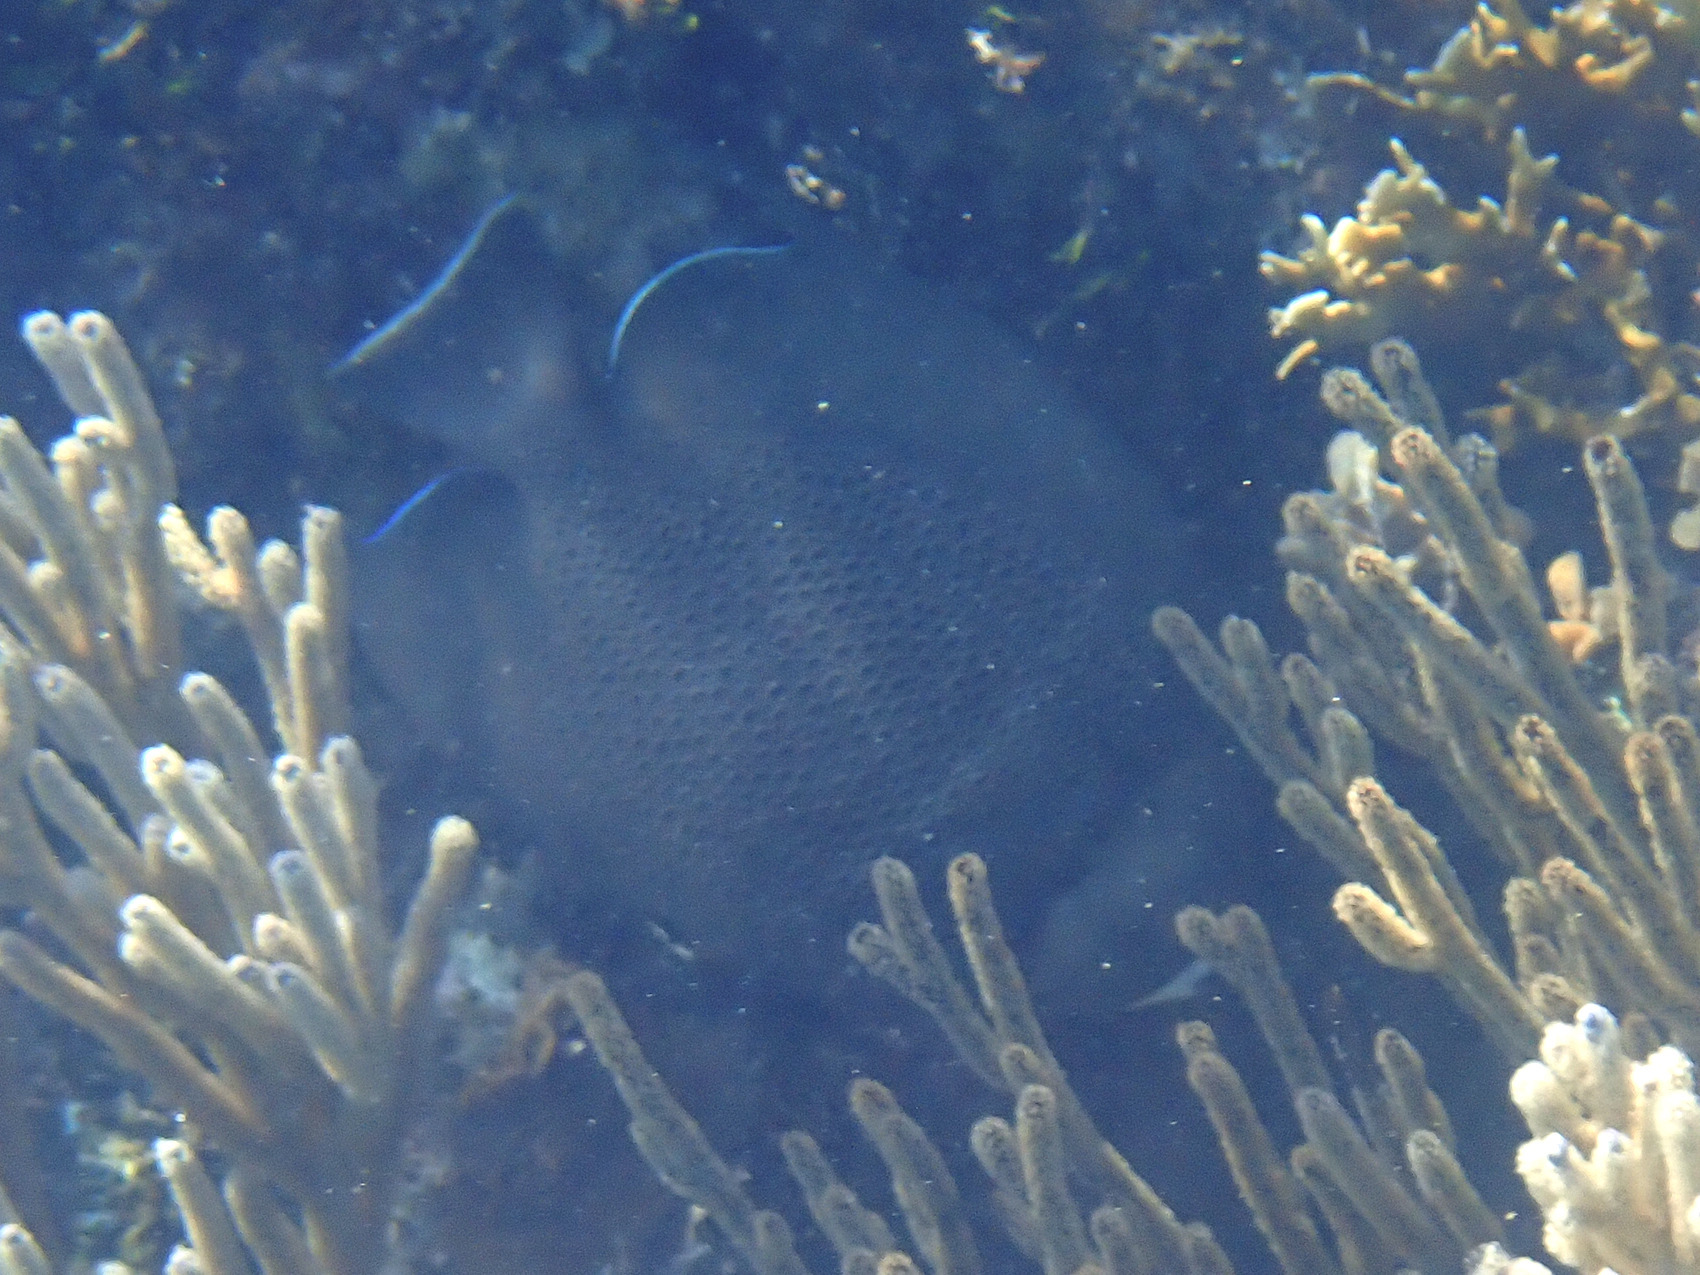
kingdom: Animalia
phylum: Chordata
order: Perciformes
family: Pomacanthidae
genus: Pomacanthus
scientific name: Pomacanthus arcuatus
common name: Gray angelfish
